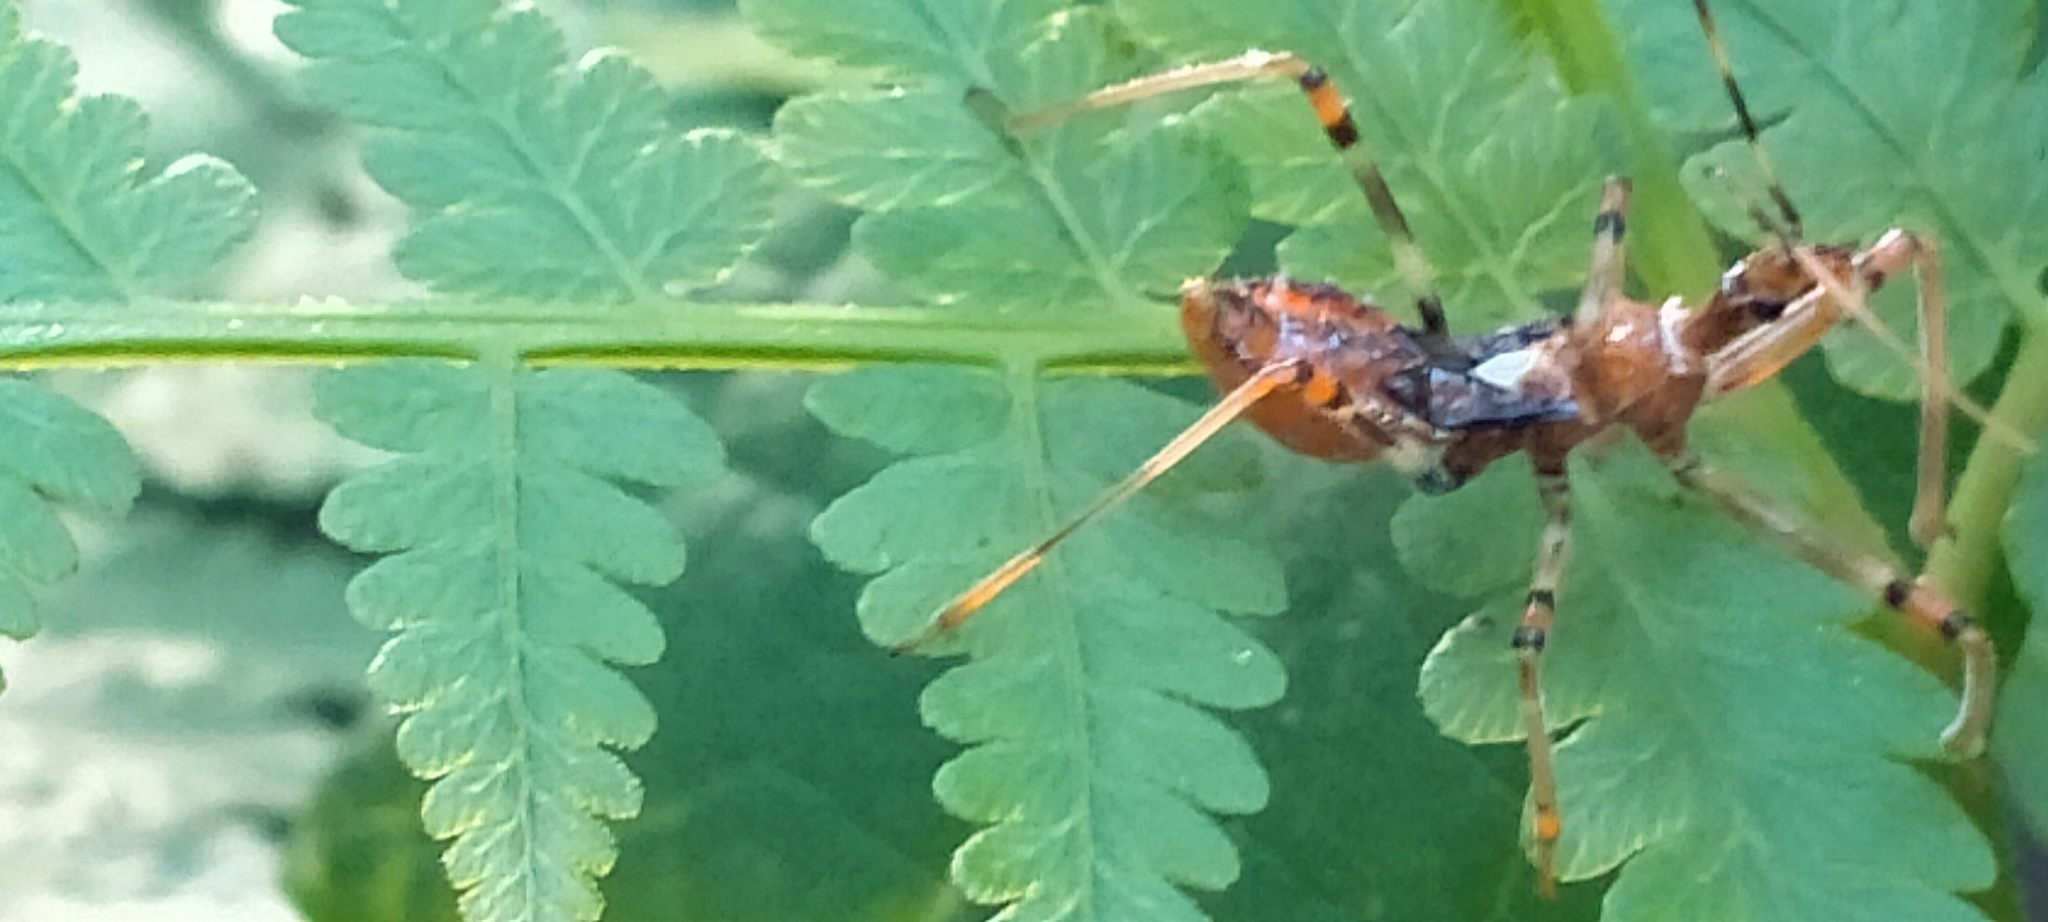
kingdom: Animalia
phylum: Arthropoda
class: Insecta
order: Hemiptera
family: Reduviidae
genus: Pristhesancus
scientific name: Pristhesancus plagipennis
